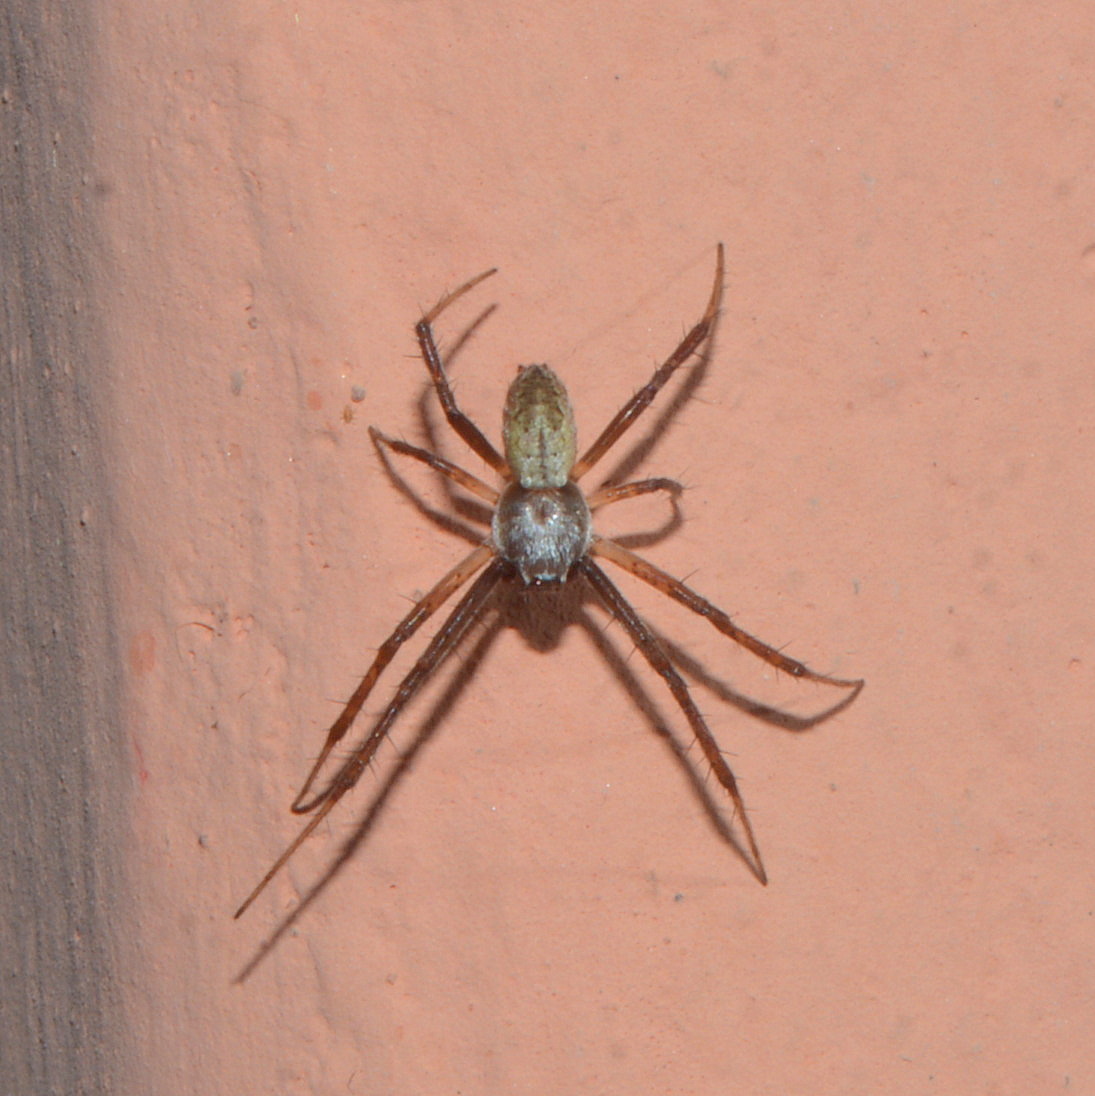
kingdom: Animalia
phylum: Arthropoda
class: Arachnida
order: Araneae
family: Araneidae
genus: Argiope
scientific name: Argiope argentata
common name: Orb weavers
